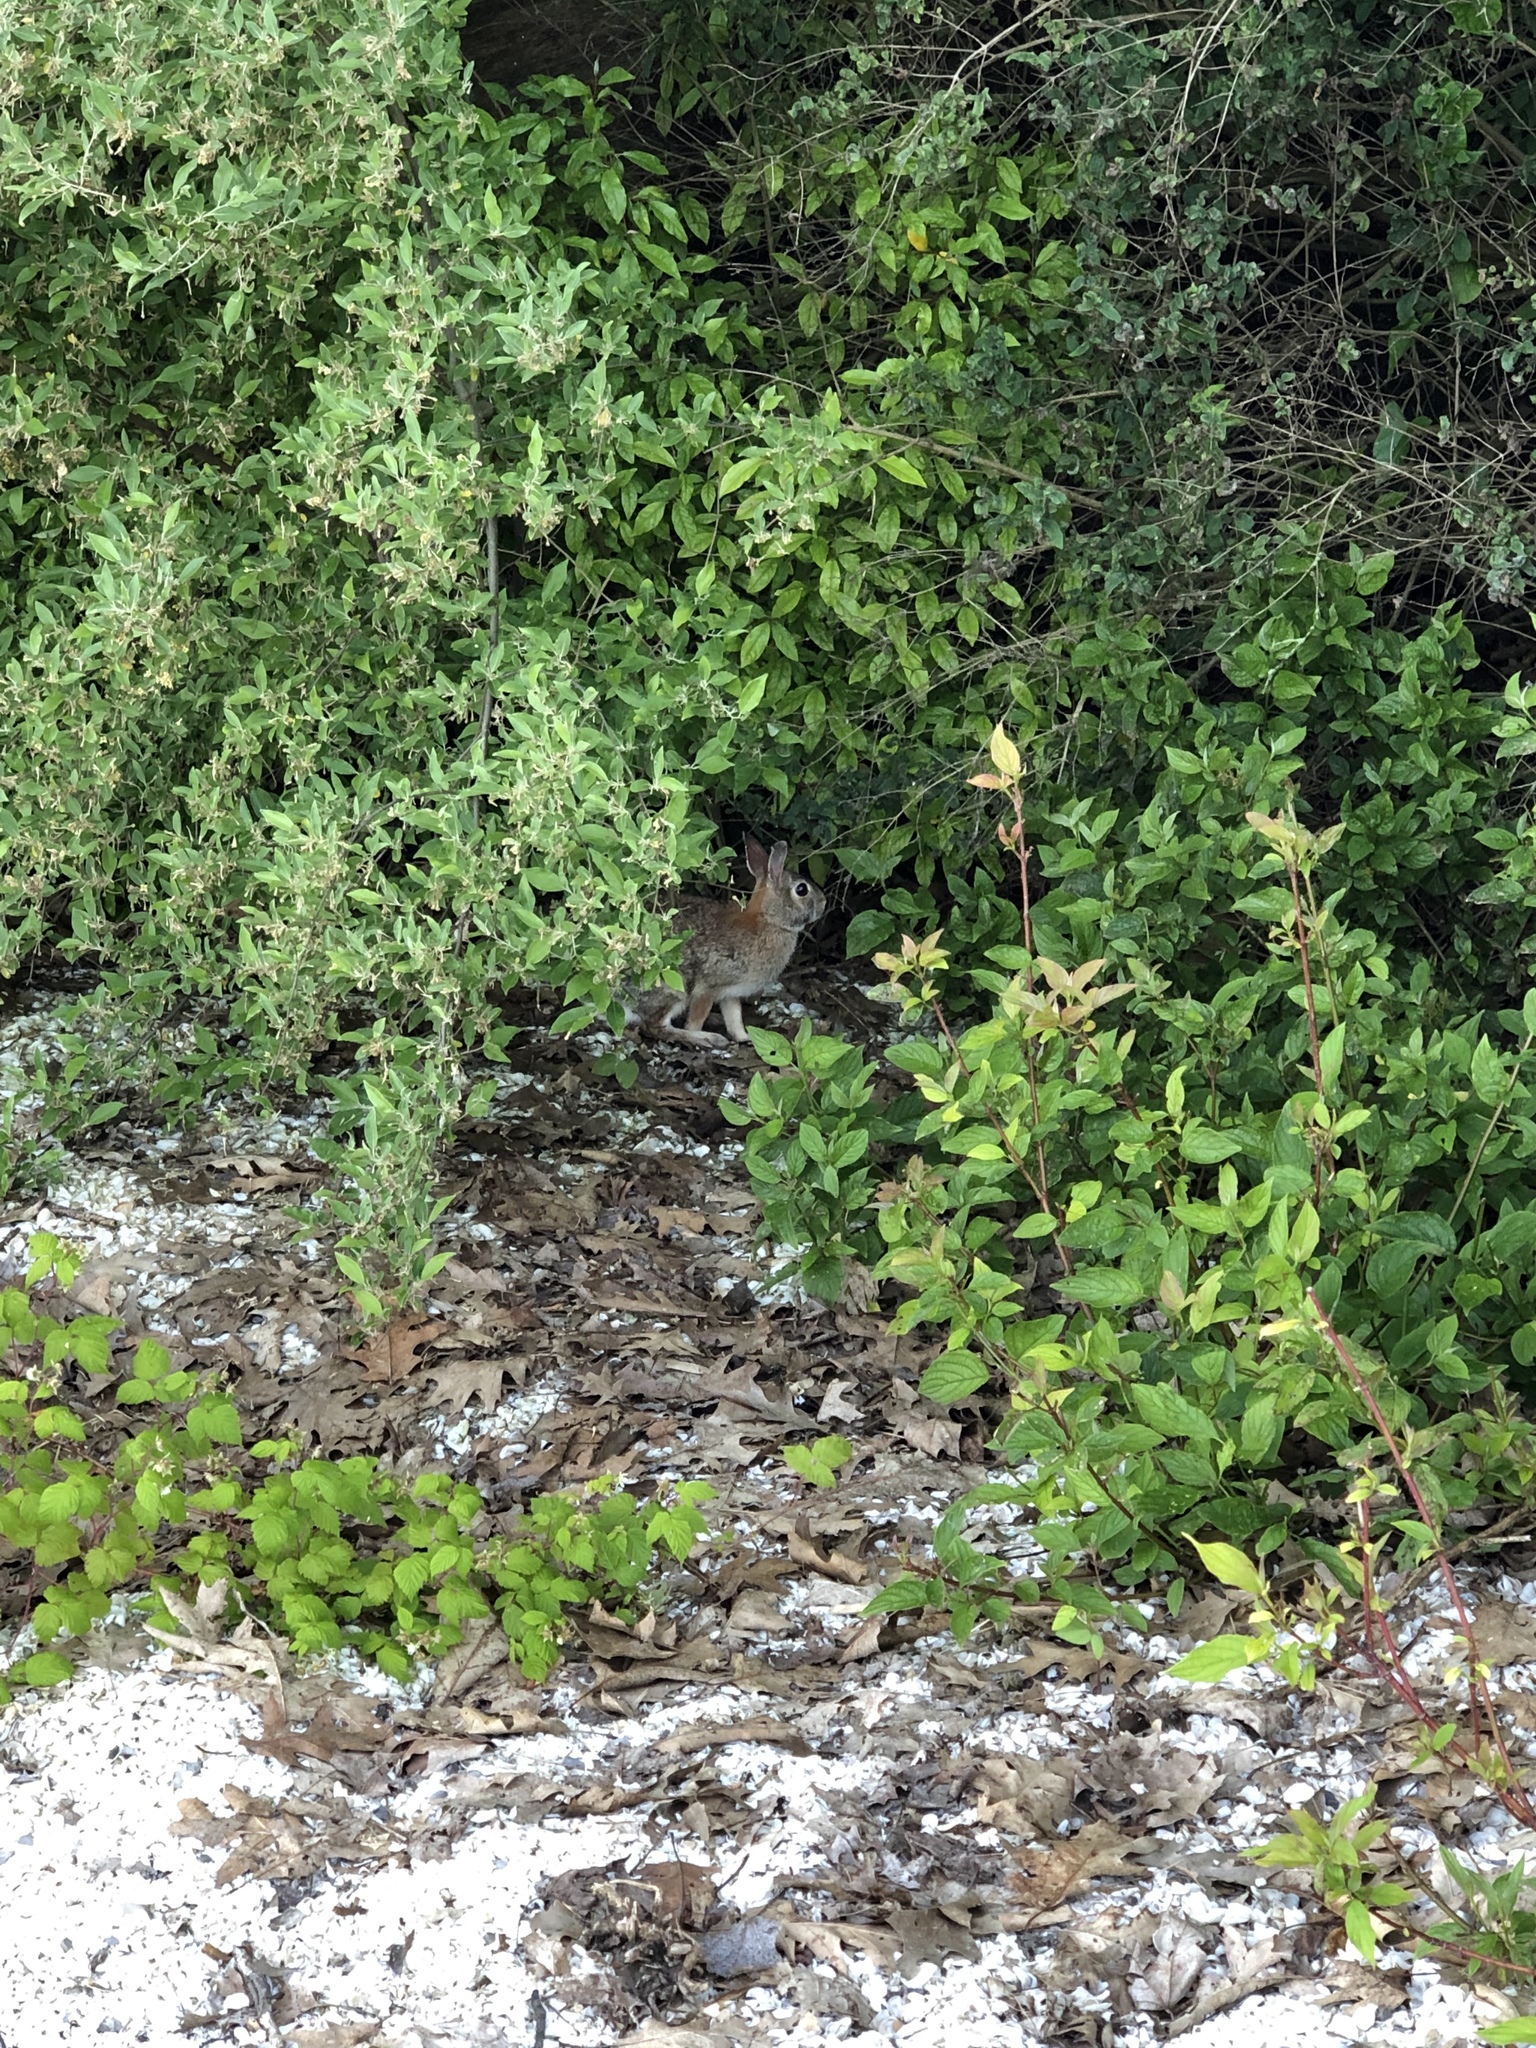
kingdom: Animalia
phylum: Chordata
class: Mammalia
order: Lagomorpha
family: Leporidae
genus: Sylvilagus
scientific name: Sylvilagus floridanus
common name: Eastern cottontail
